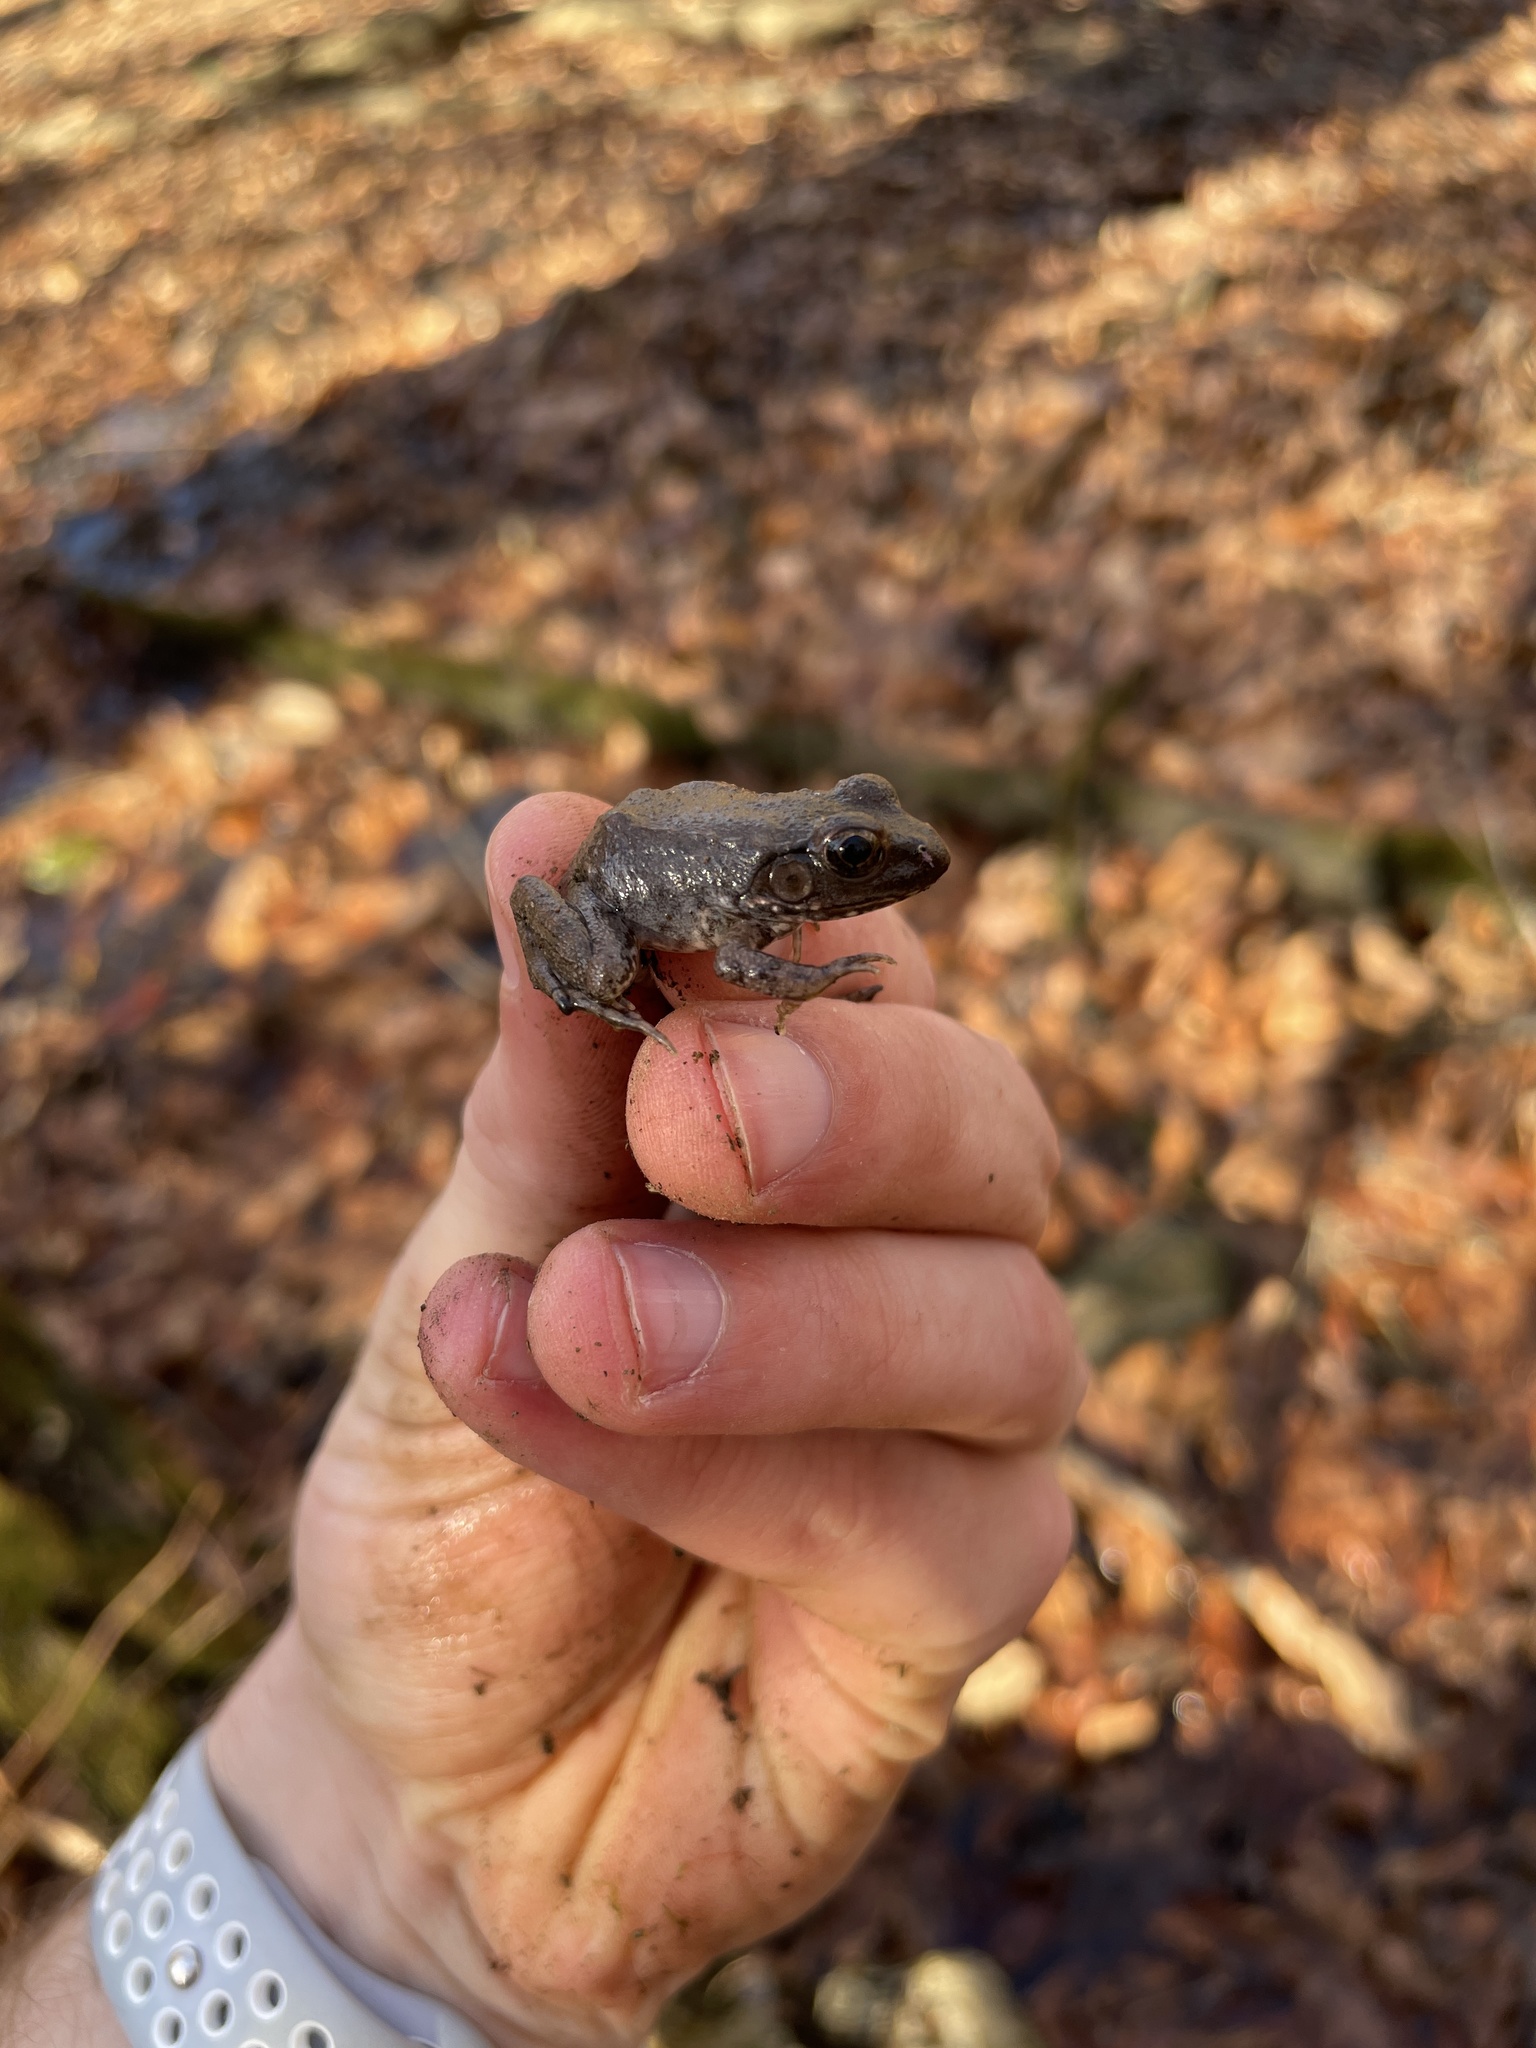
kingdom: Animalia
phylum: Chordata
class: Amphibia
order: Anura
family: Ranidae
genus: Lithobates
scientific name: Lithobates clamitans
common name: Green frog
